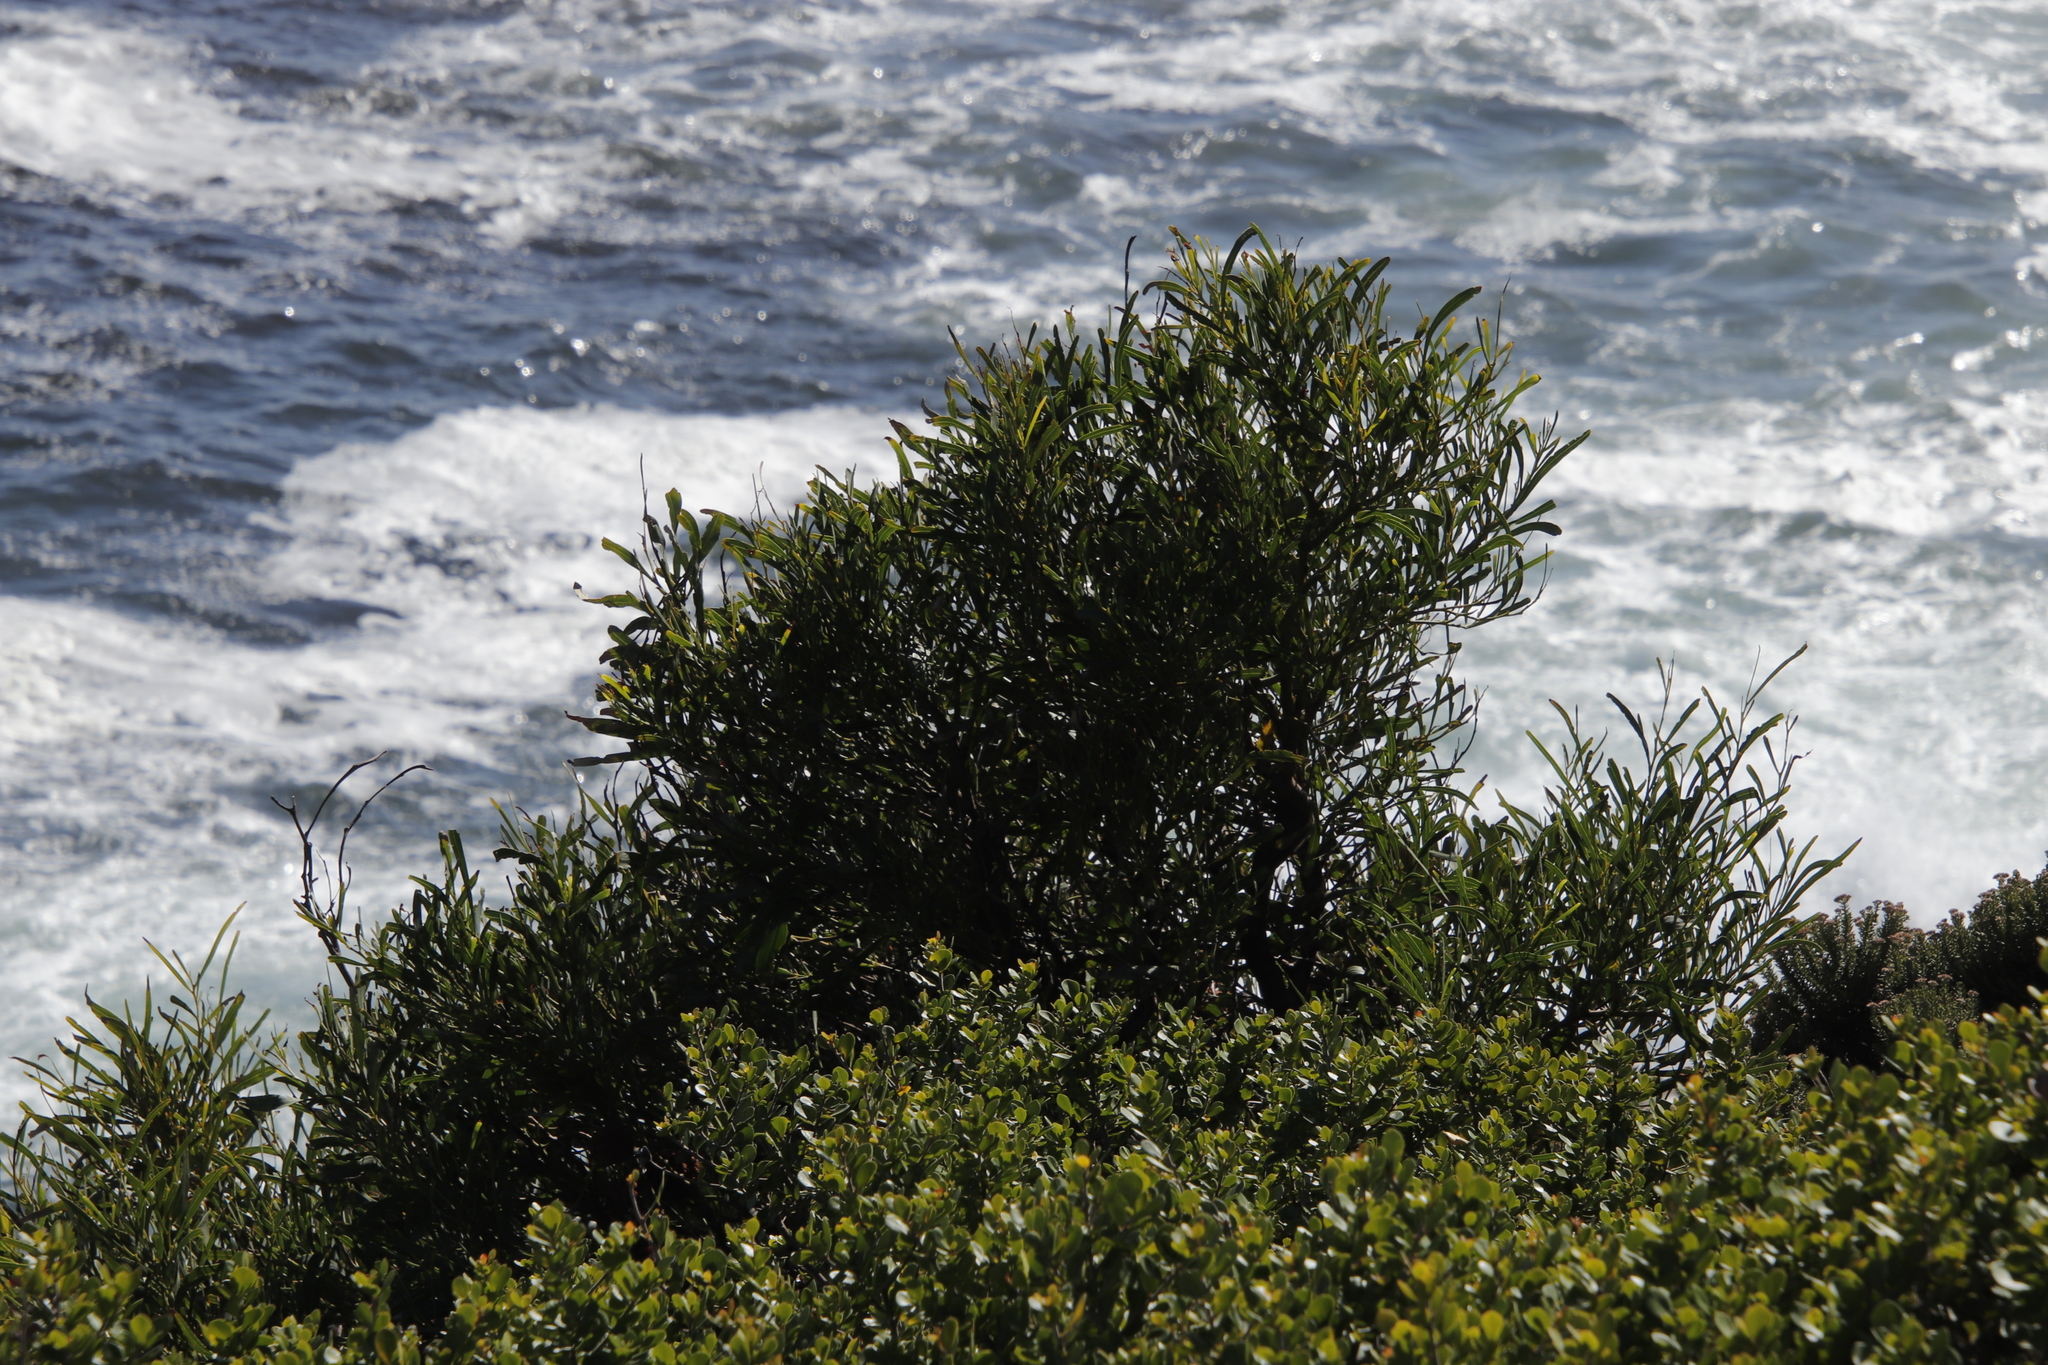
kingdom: Plantae
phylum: Tracheophyta
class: Magnoliopsida
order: Fabales
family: Fabaceae
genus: Acacia
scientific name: Acacia saligna
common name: Orange wattle
